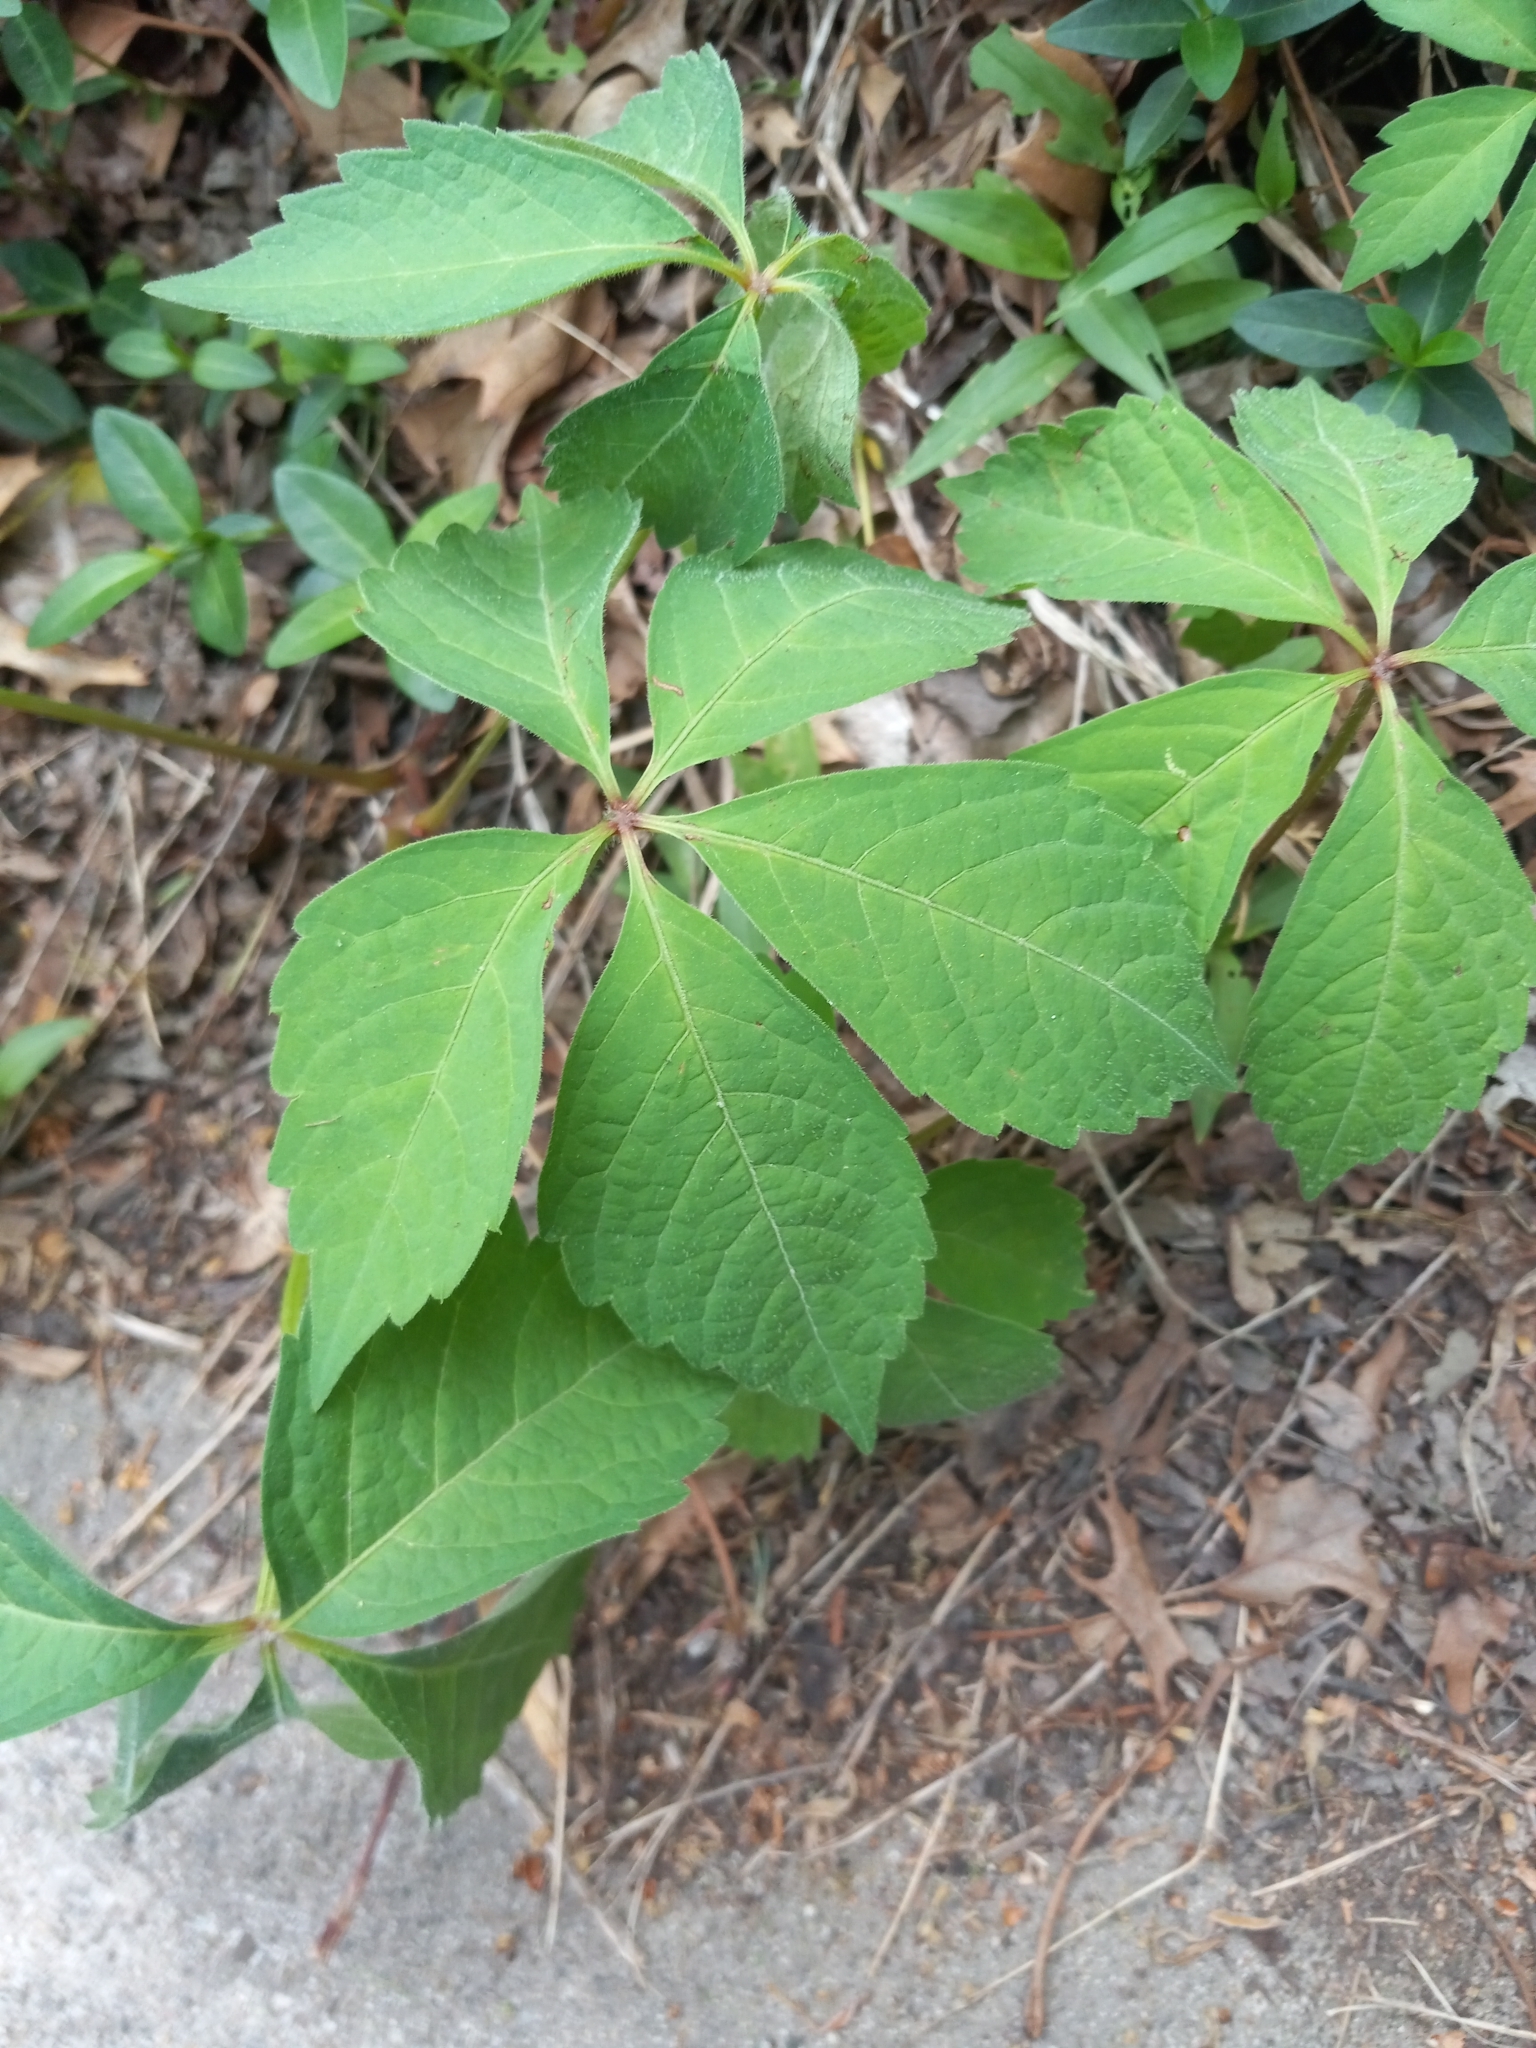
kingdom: Plantae
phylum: Tracheophyta
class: Magnoliopsida
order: Vitales
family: Vitaceae
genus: Parthenocissus
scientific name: Parthenocissus quinquefolia
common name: Virginia-creeper
